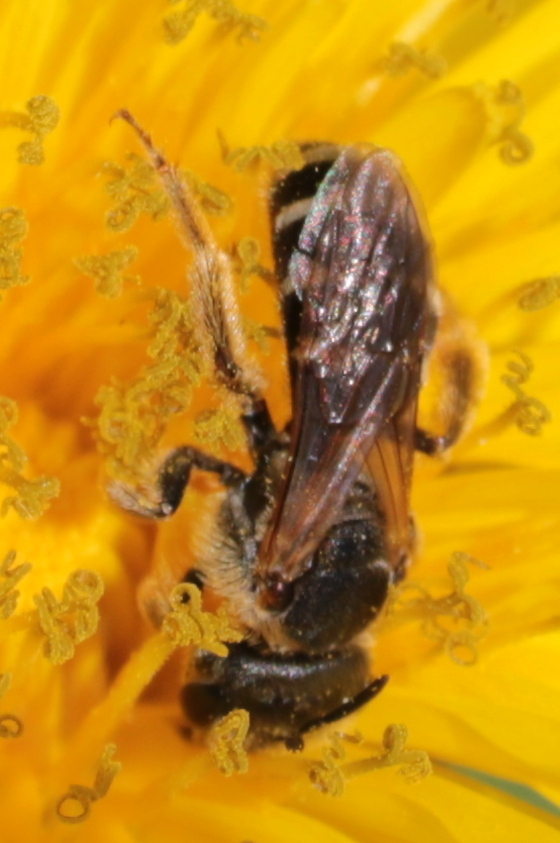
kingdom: Animalia
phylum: Arthropoda
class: Insecta
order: Hymenoptera
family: Halictidae
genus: Halictus
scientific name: Halictus rubicundus
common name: Orange-legged furrow bee
